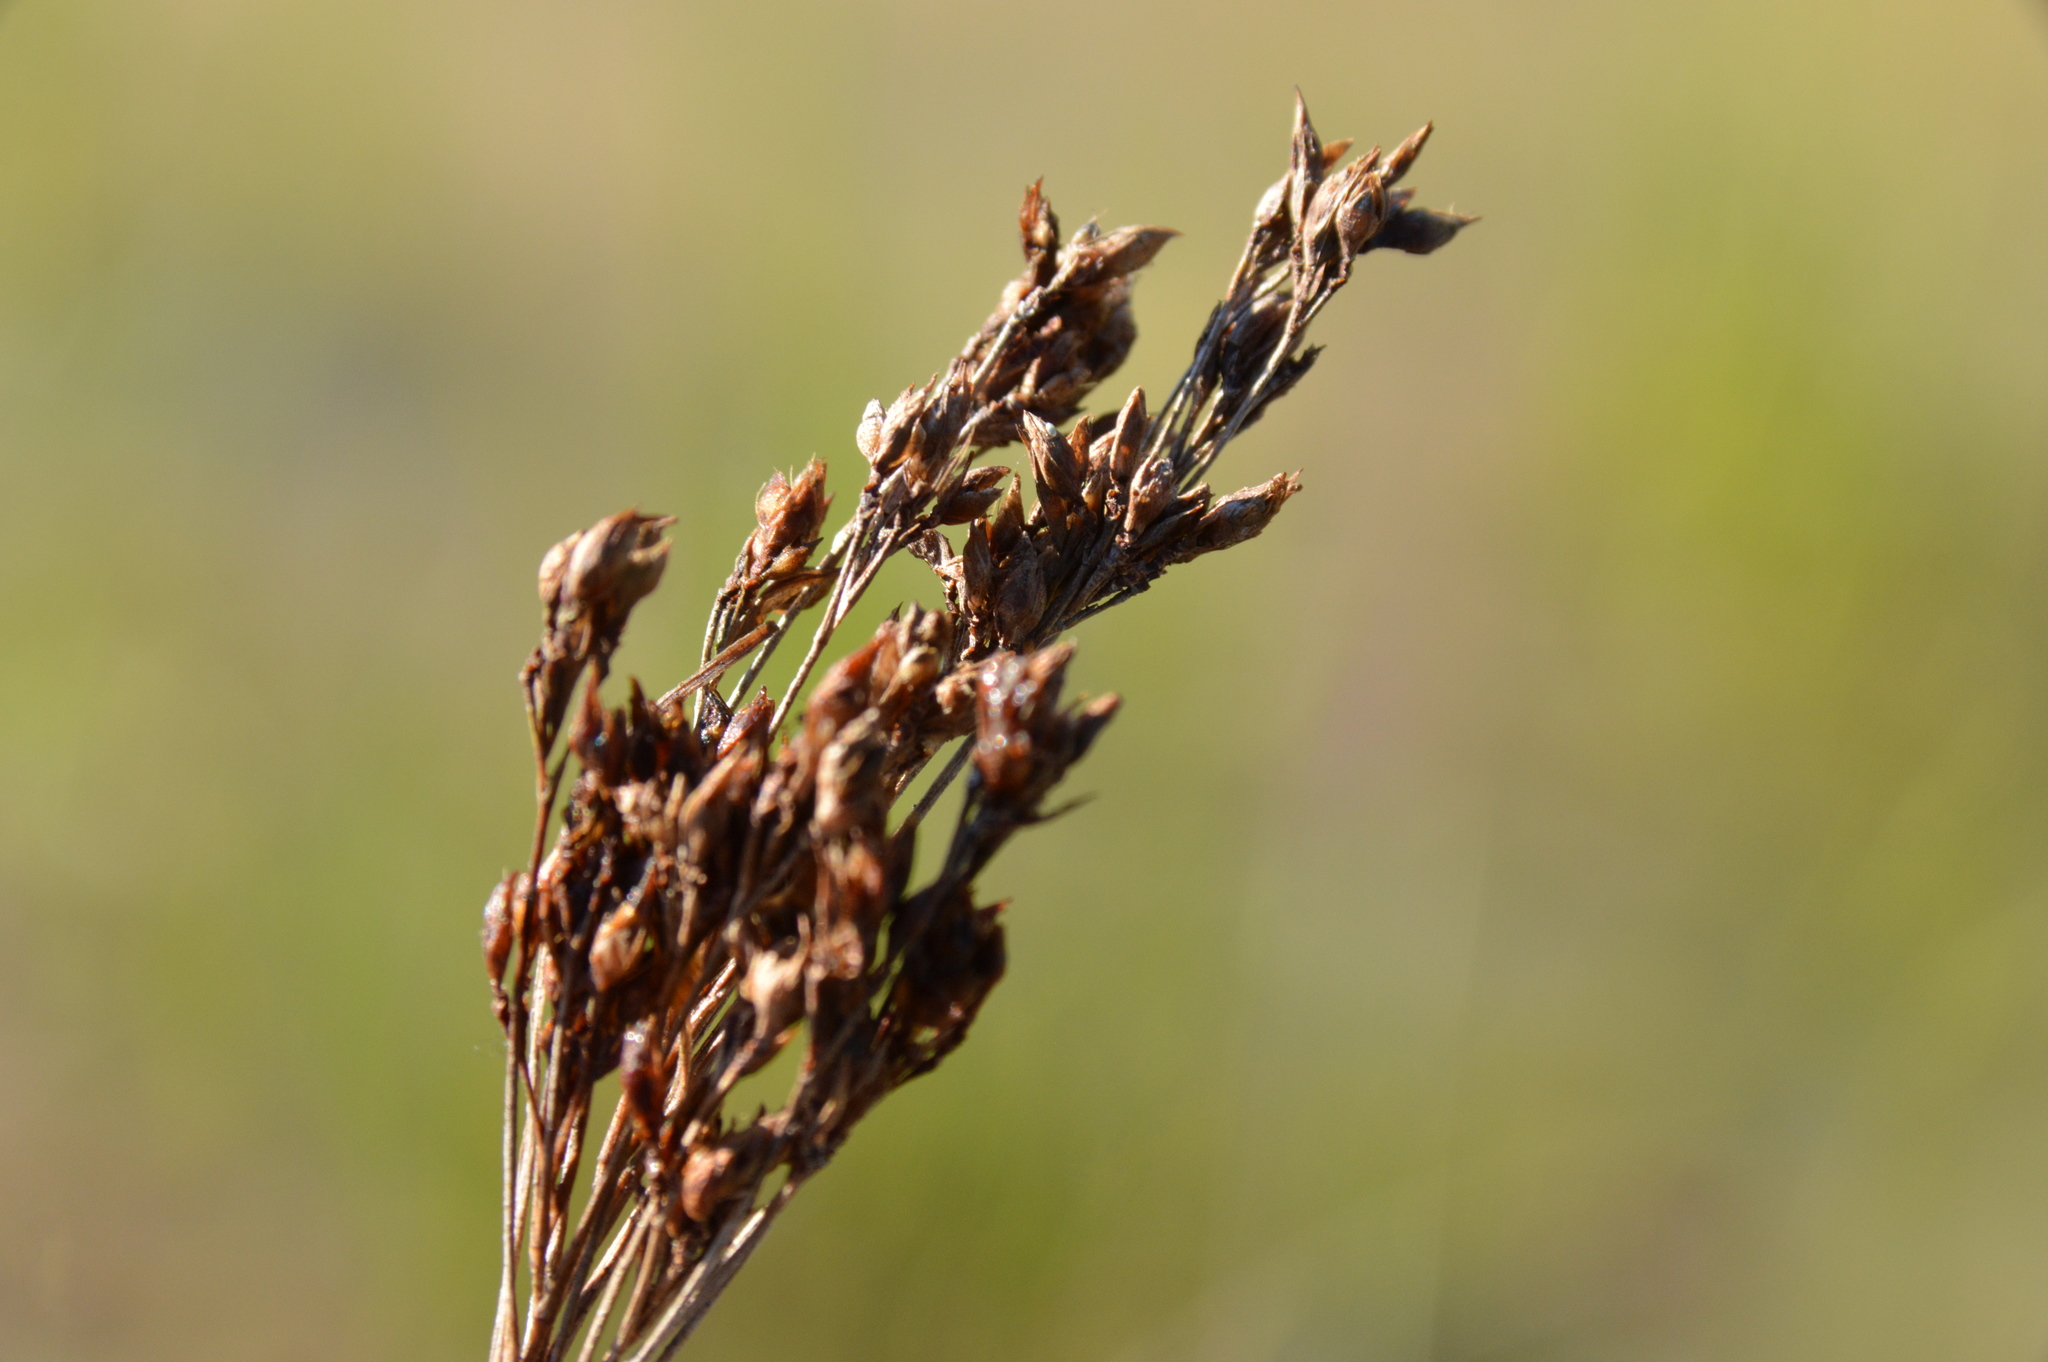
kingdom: Plantae
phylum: Tracheophyta
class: Liliopsida
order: Poales
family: Cyperaceae
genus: Rhynchospora
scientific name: Rhynchospora caduca
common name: Anglestem beaksedge
